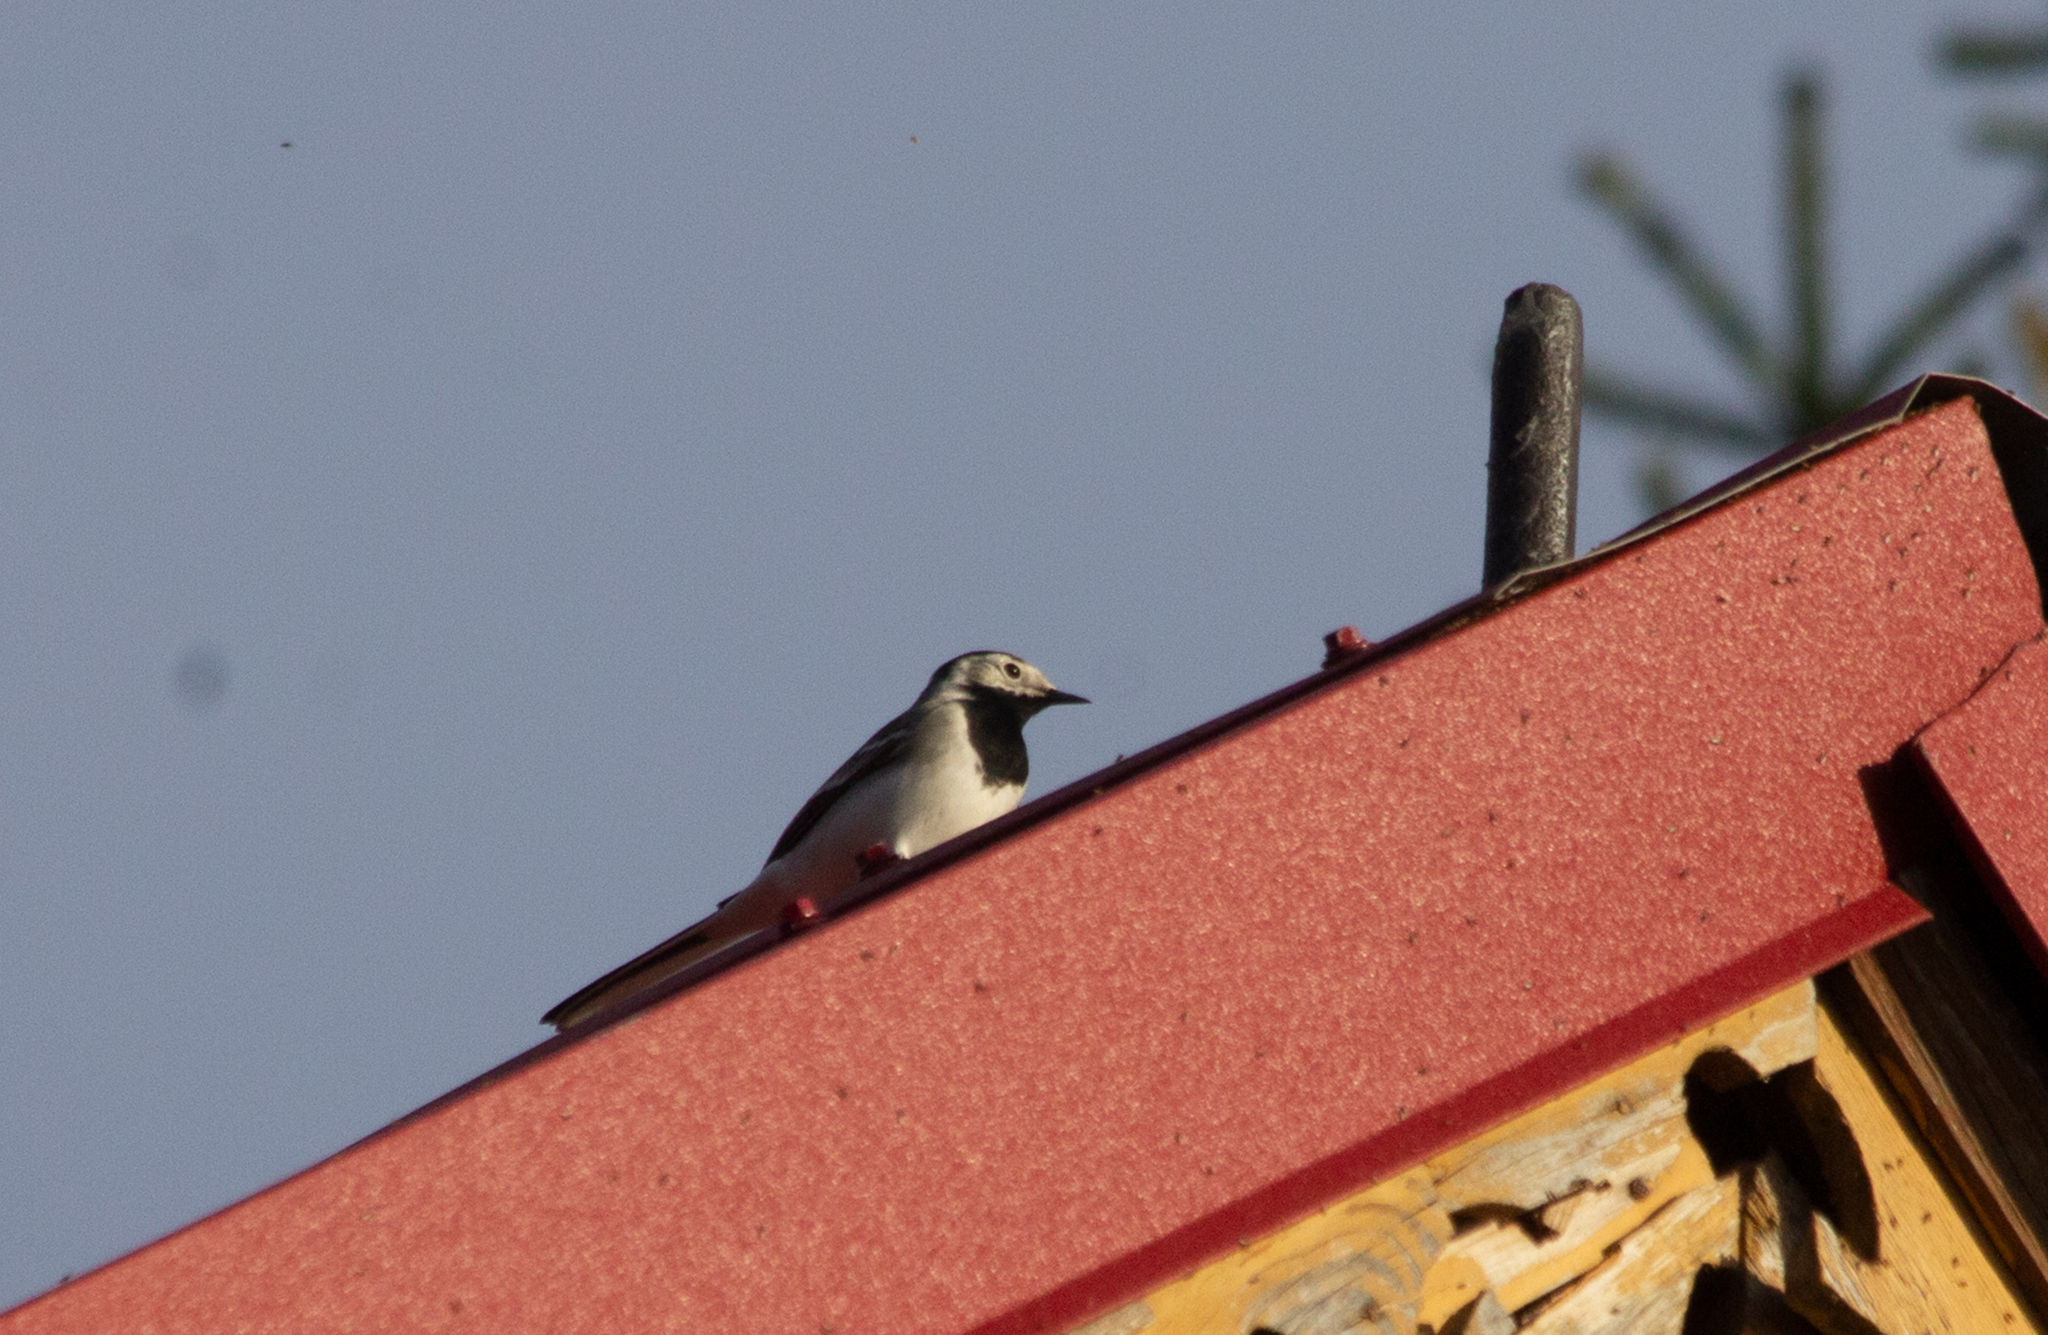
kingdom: Animalia
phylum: Chordata
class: Aves
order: Passeriformes
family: Motacillidae
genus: Motacilla
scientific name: Motacilla alba
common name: White wagtail
